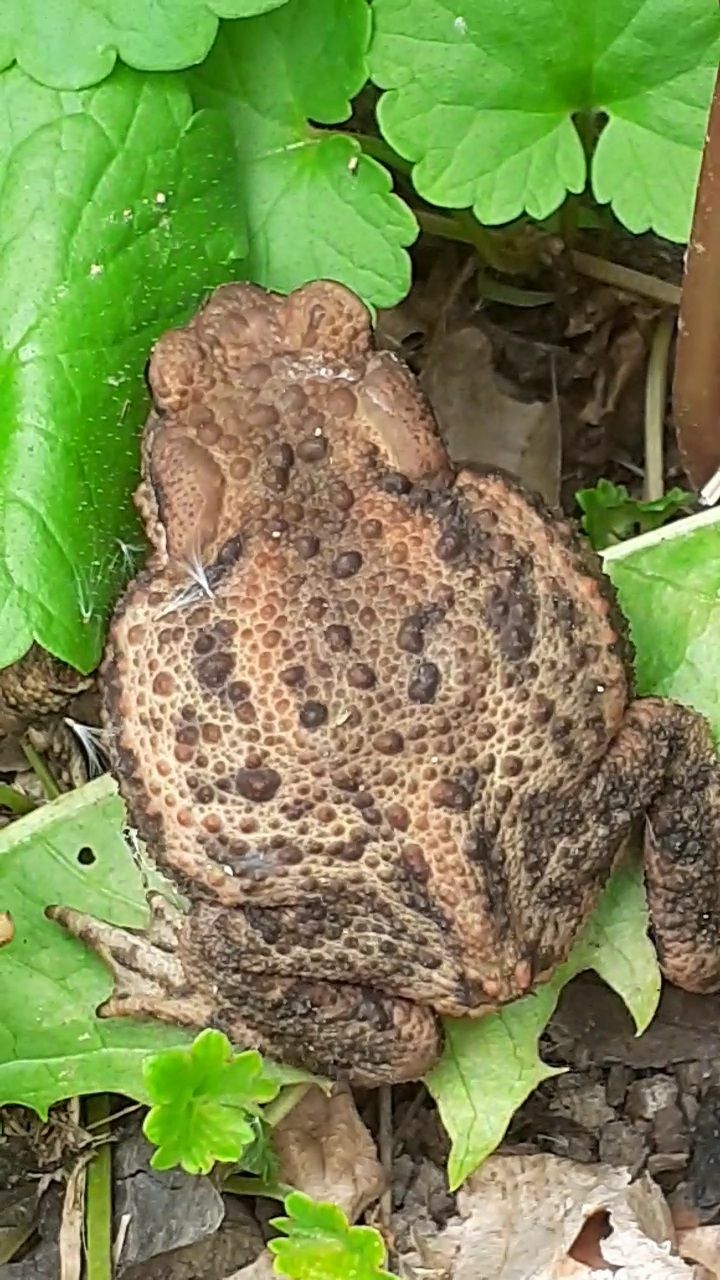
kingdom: Animalia
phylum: Chordata
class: Amphibia
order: Anura
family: Bufonidae
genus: Bufo
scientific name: Bufo bufo
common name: Common toad
